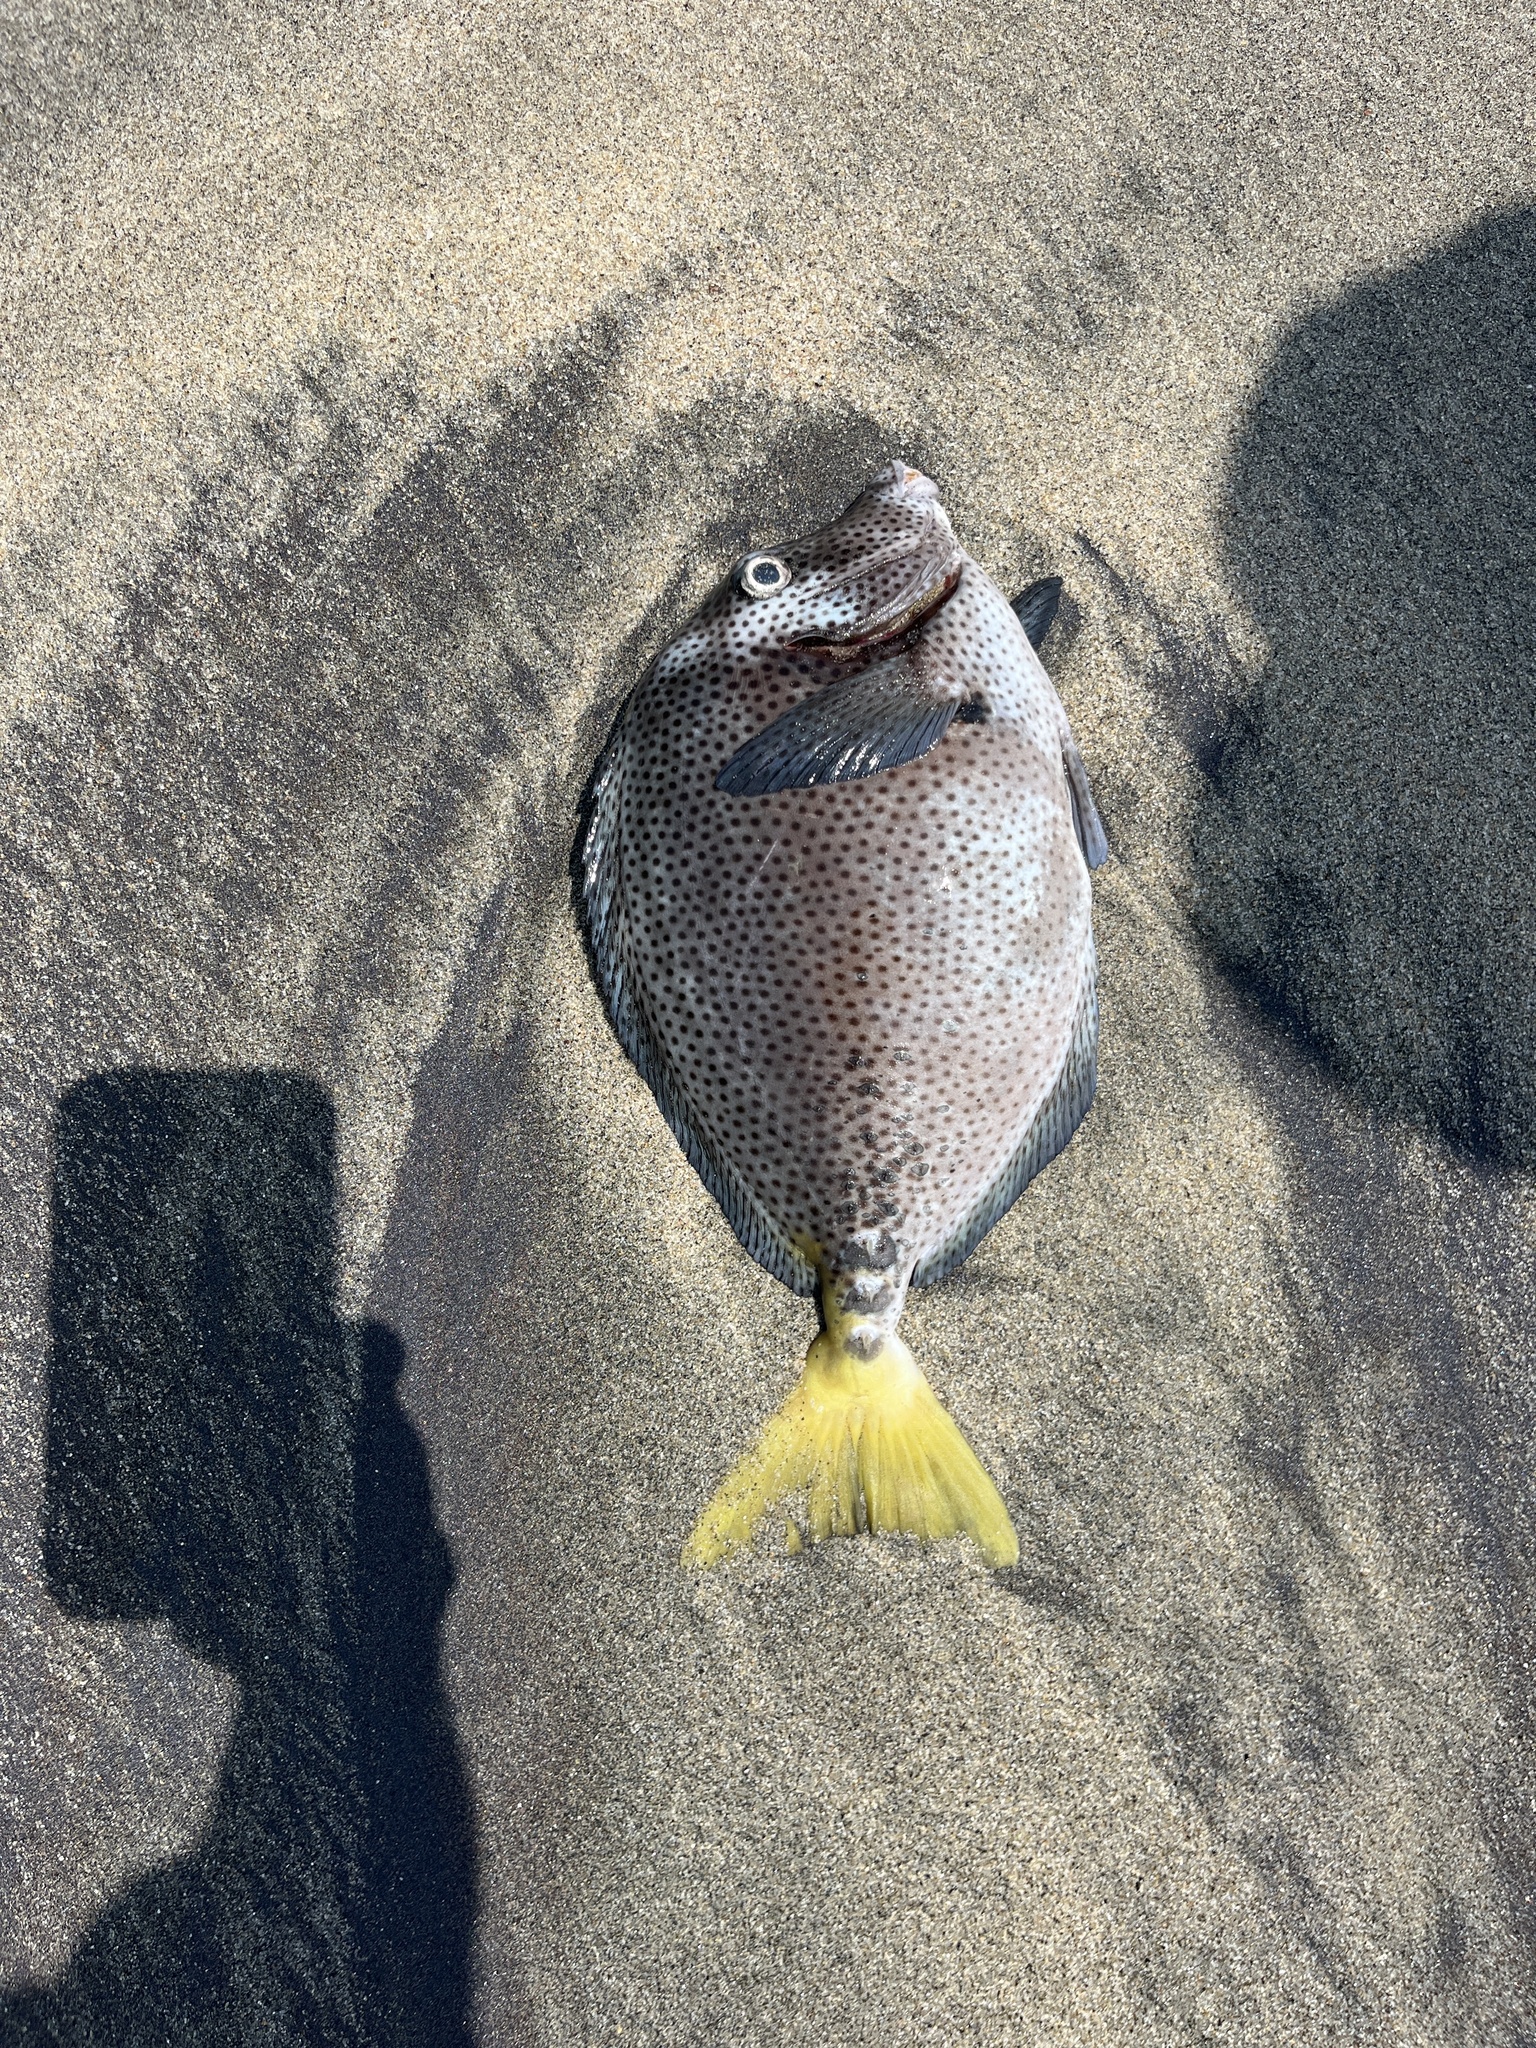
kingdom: Animalia
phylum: Chordata
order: Perciformes
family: Acanthuridae
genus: Prionurus
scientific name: Prionurus laticlavius
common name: Razor surgeonfish
